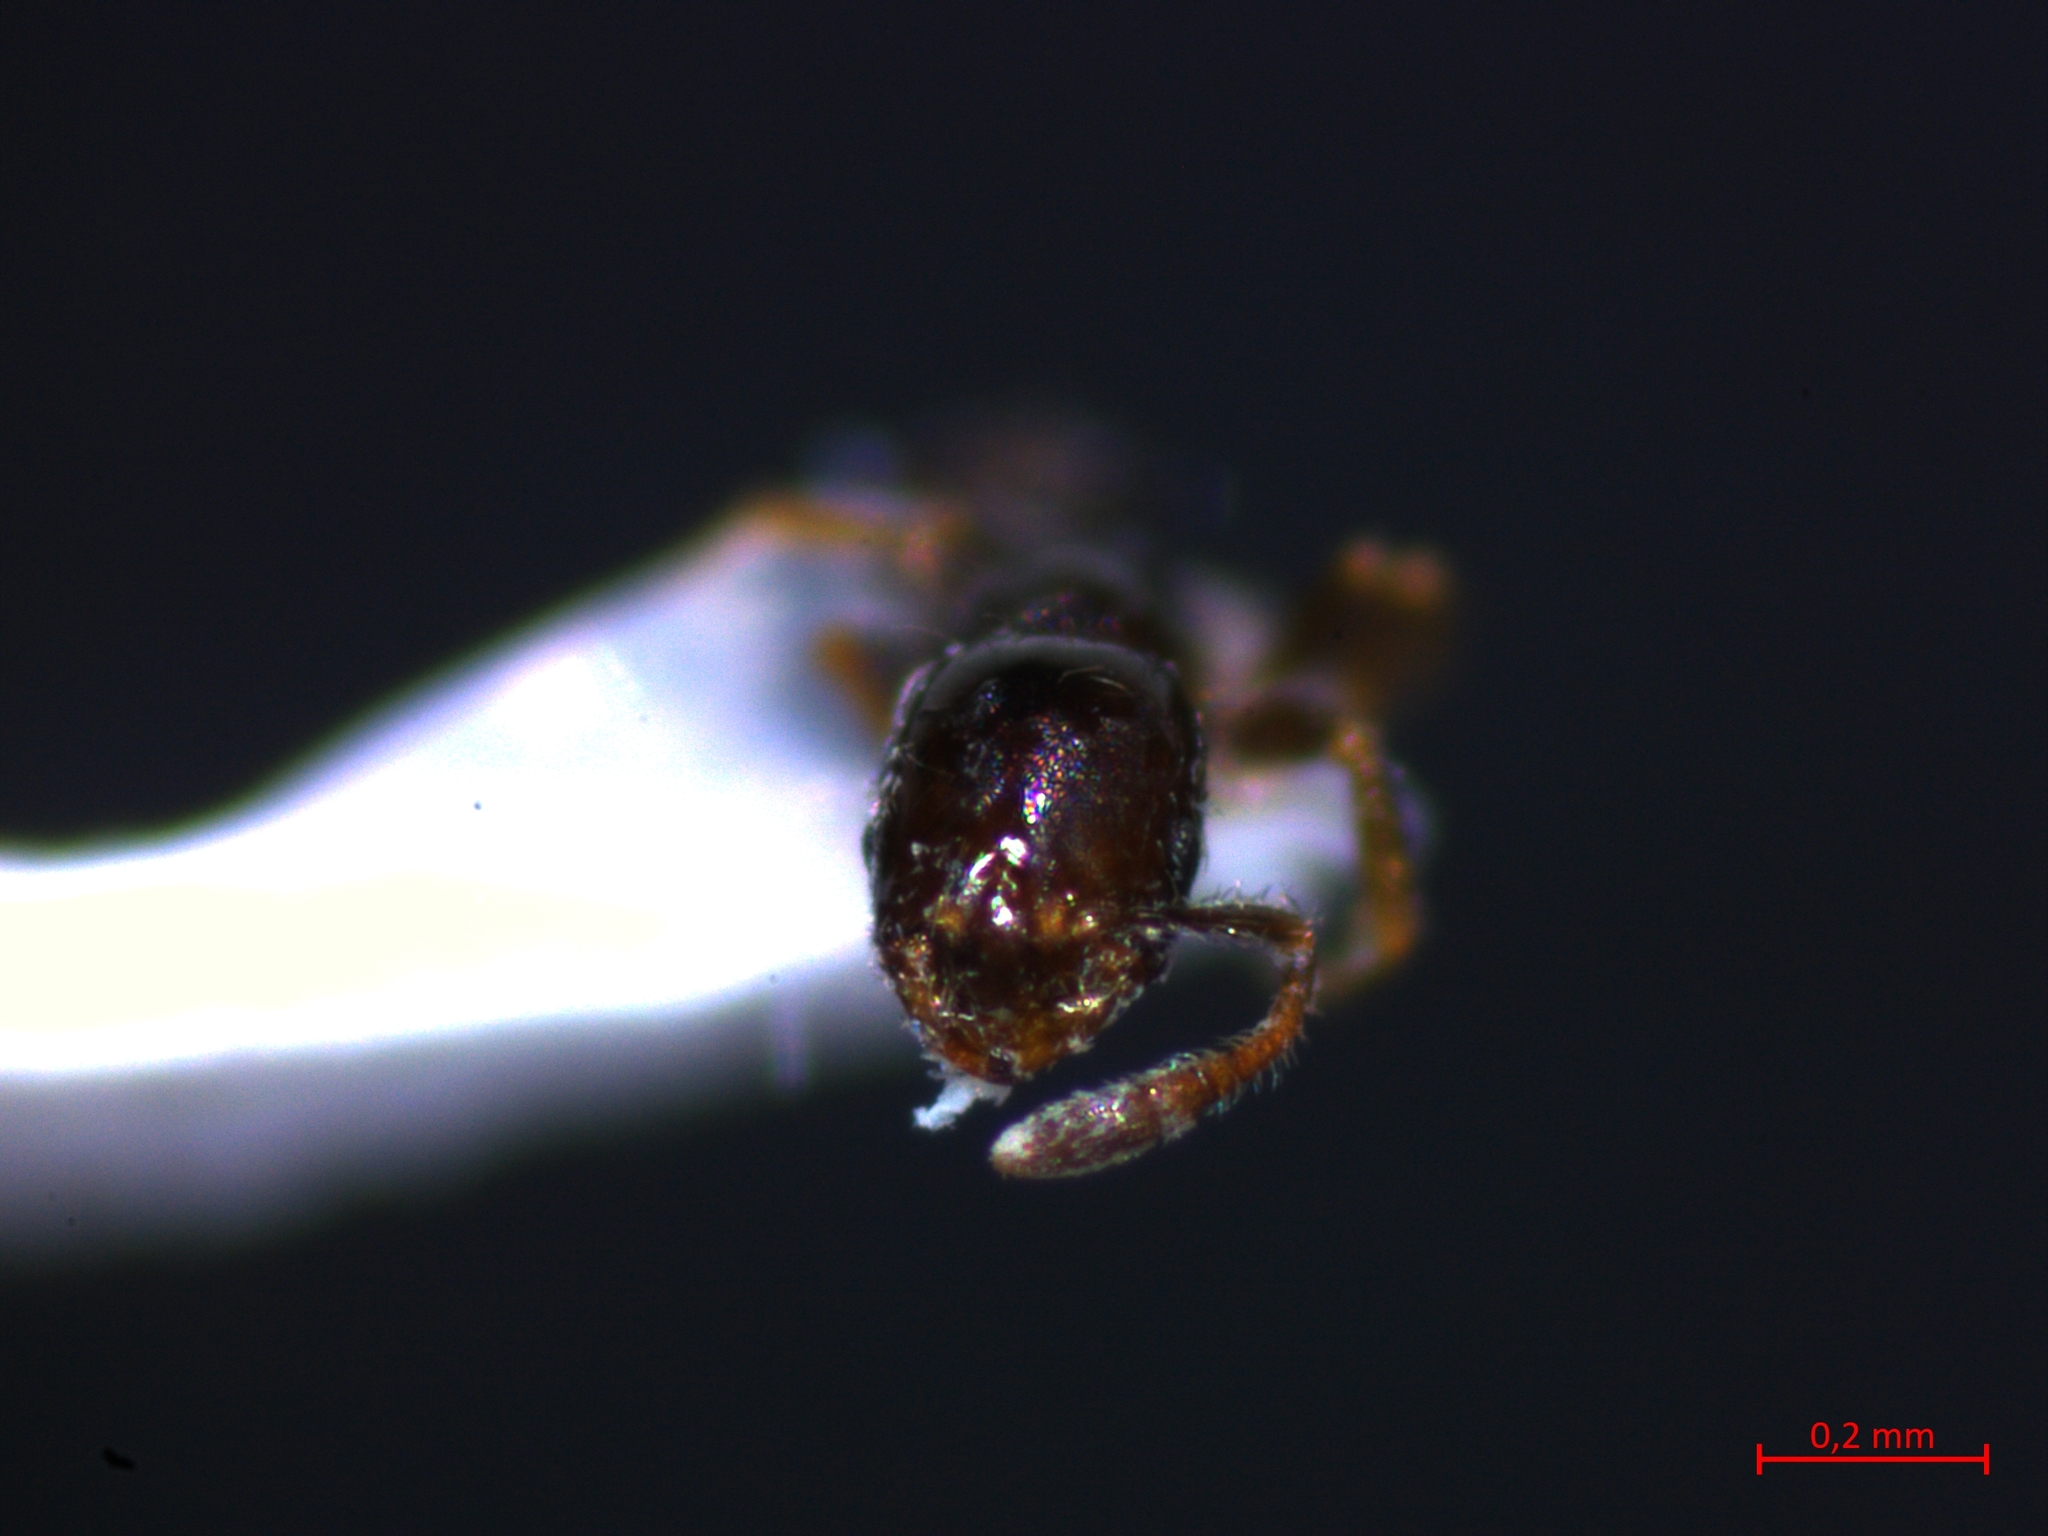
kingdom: Animalia
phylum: Arthropoda
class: Insecta
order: Hymenoptera
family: Formicidae
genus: Monomorium
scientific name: Monomorium monomorium
